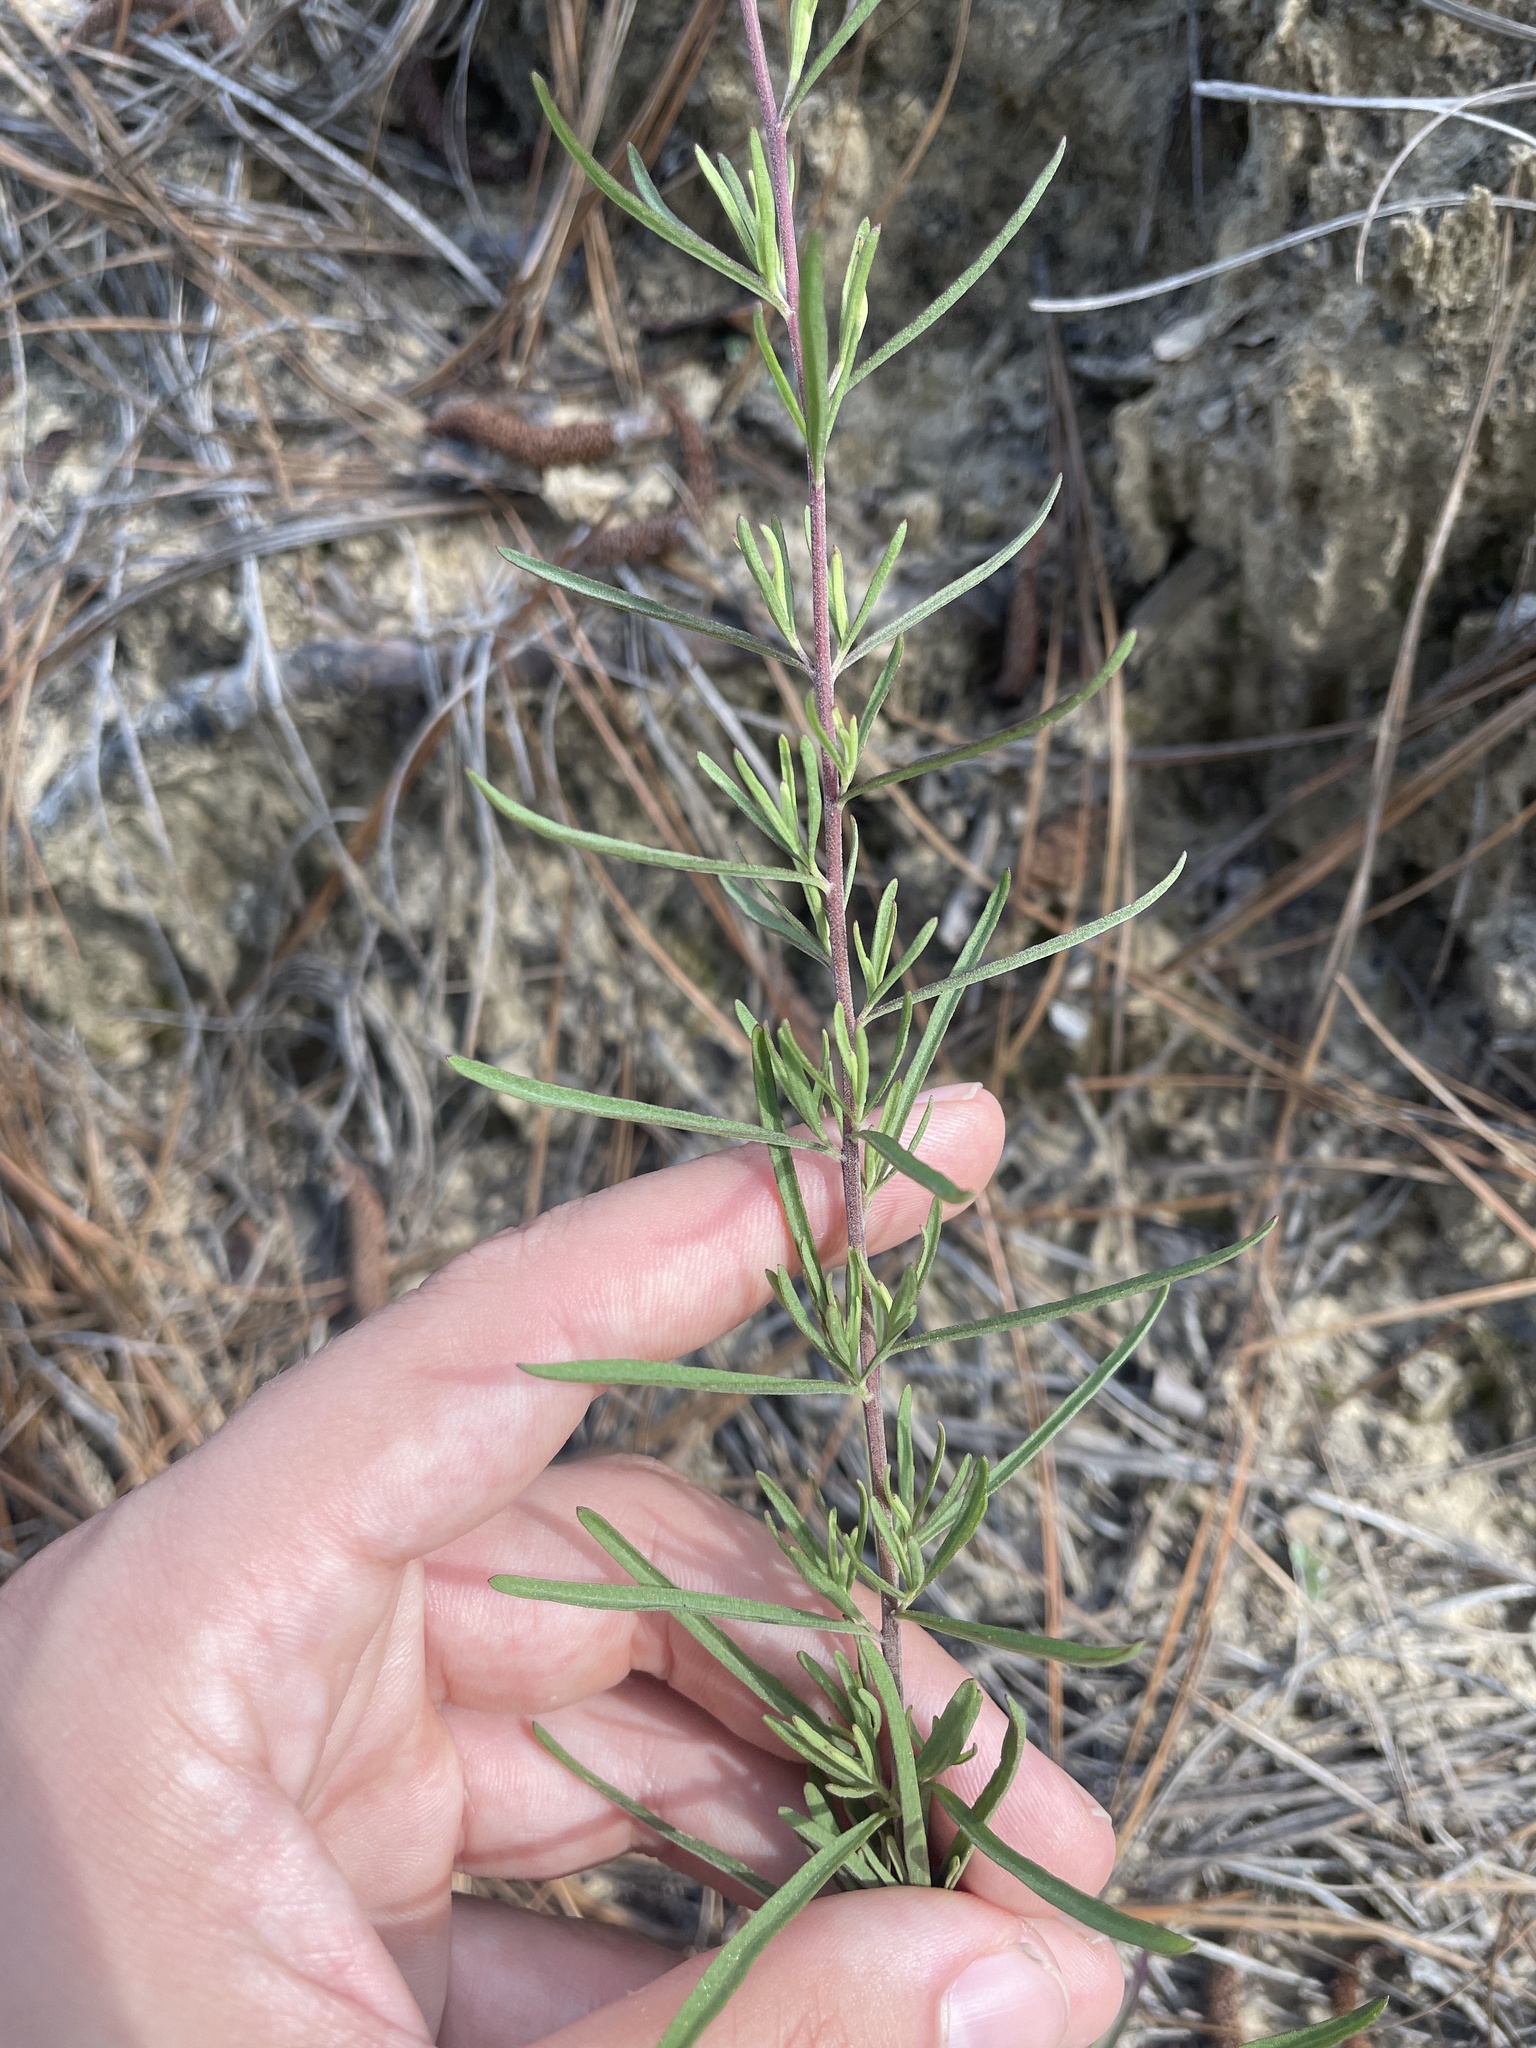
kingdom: Plantae
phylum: Tracheophyta
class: Magnoliopsida
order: Asterales
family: Asteraceae
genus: Eupatorium
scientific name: Eupatorium hyssopifolium
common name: Hyssop-leaf thoroughwort
